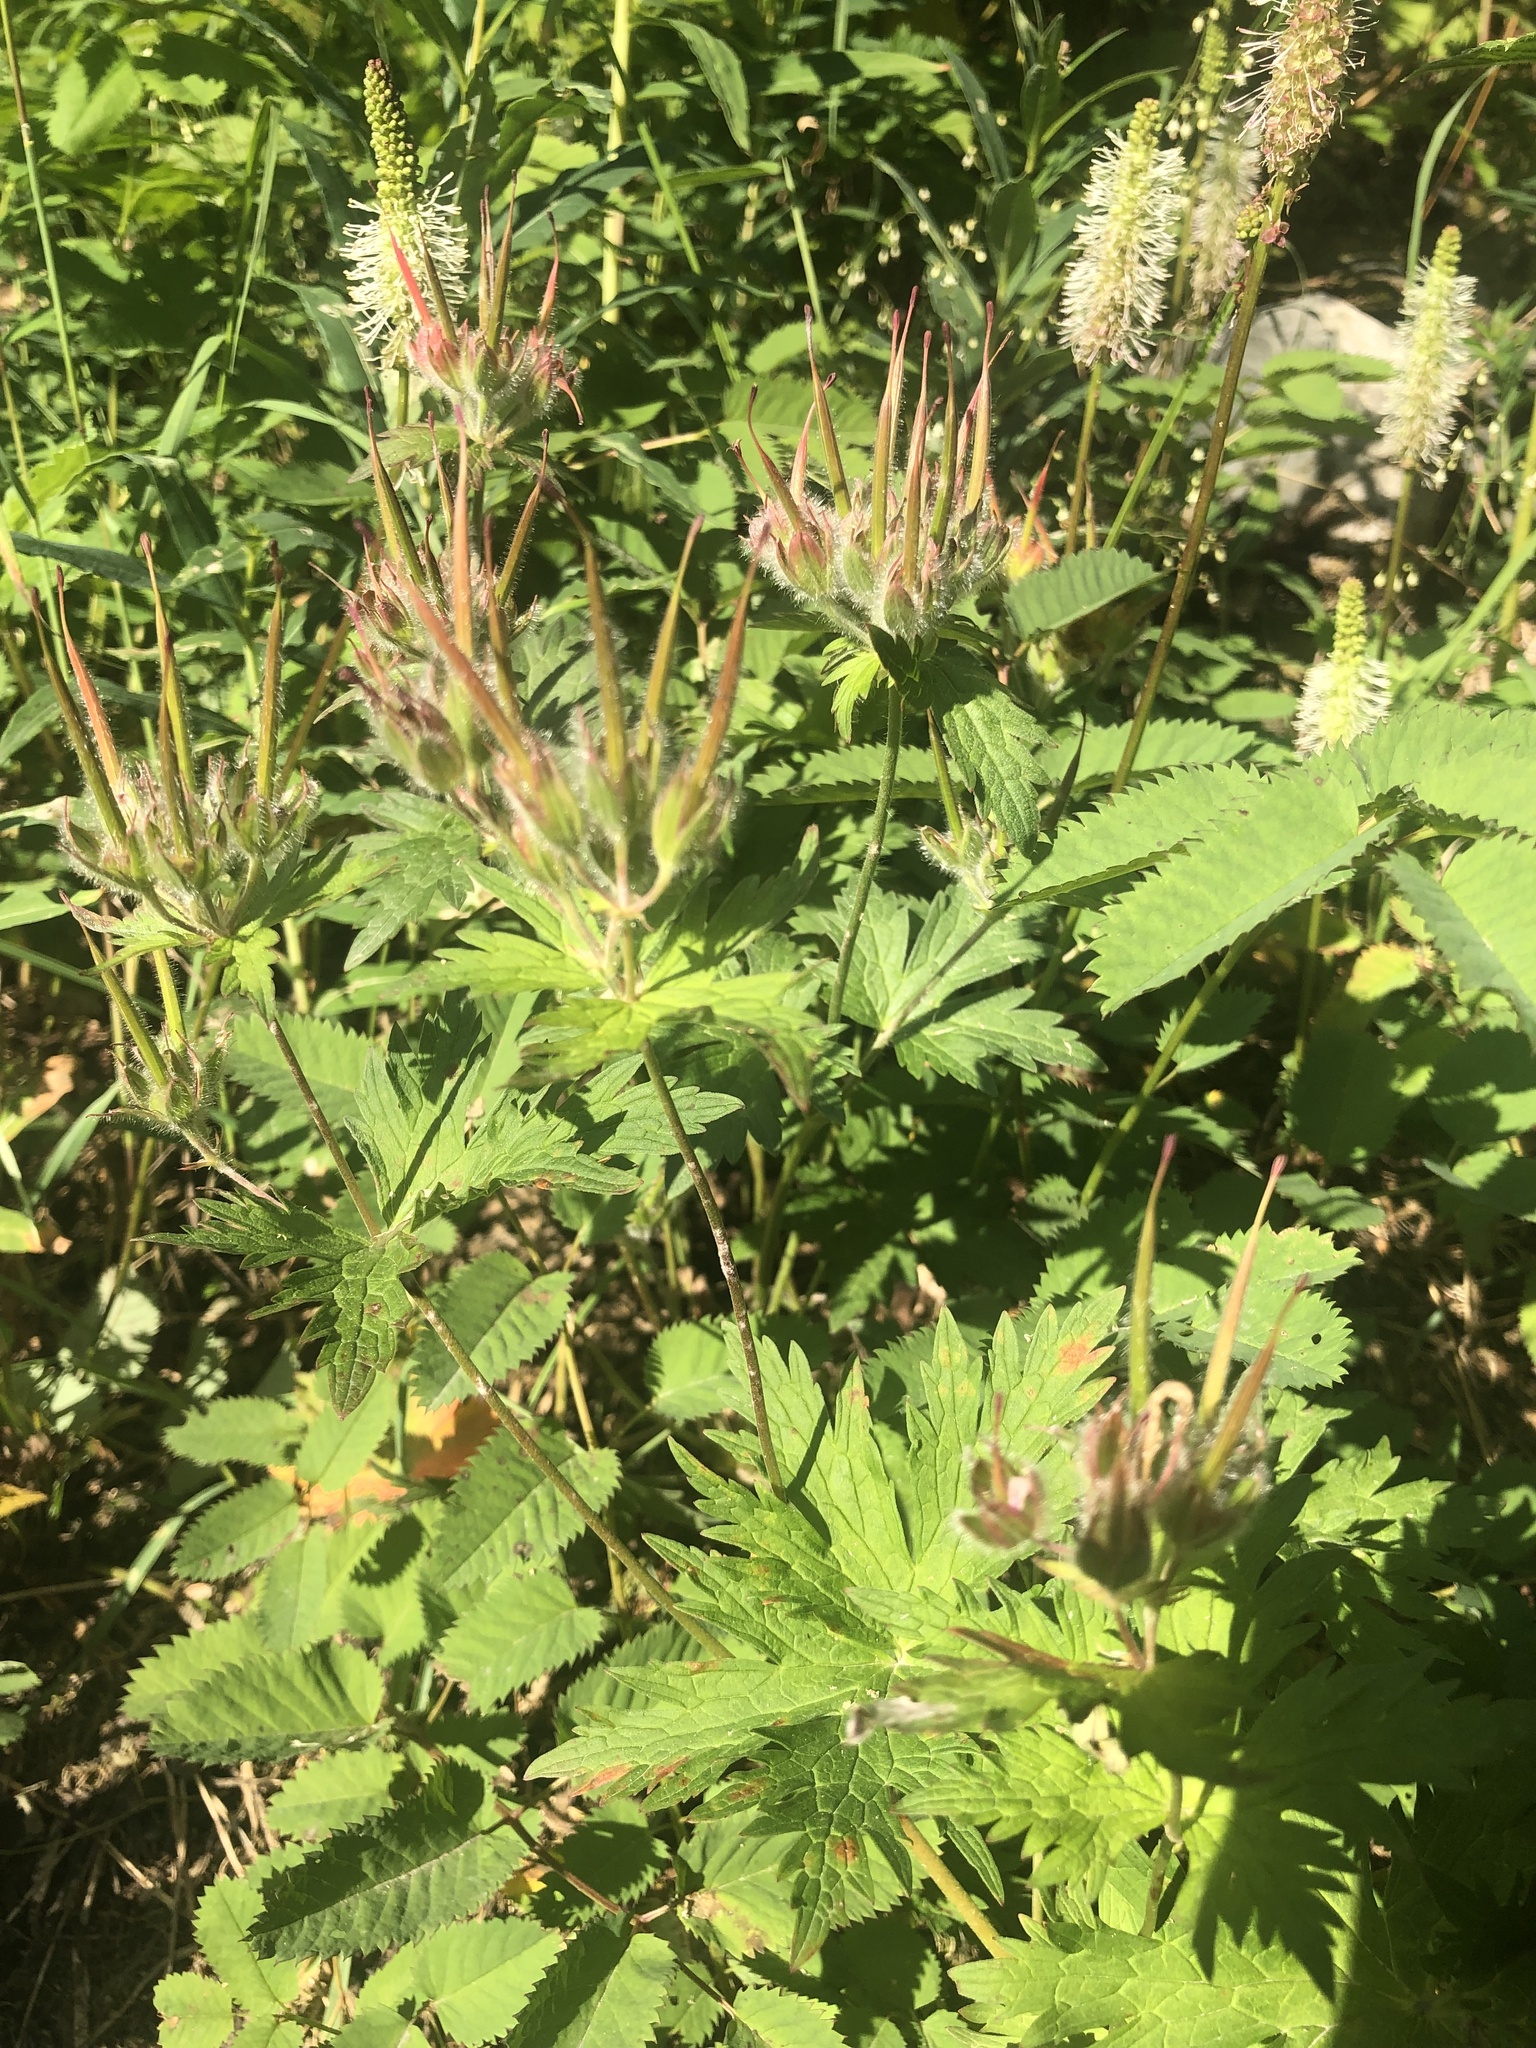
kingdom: Plantae
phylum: Tracheophyta
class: Magnoliopsida
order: Geraniales
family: Geraniaceae
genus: Geranium
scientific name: Geranium erianthum
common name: Northern crane's-bill
